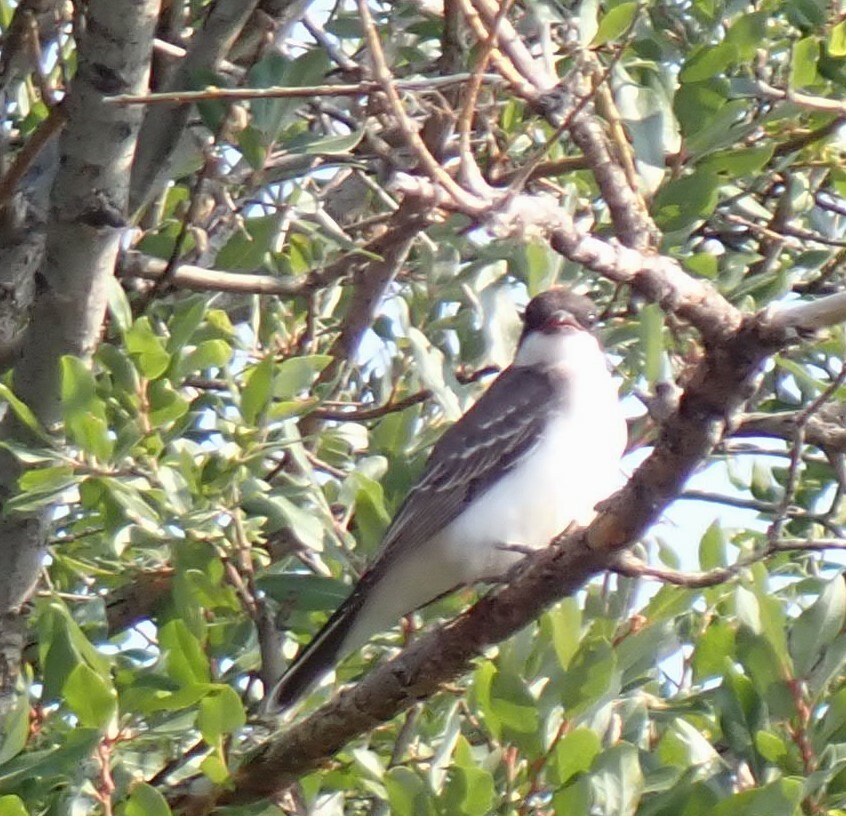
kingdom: Animalia
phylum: Chordata
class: Aves
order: Passeriformes
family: Tyrannidae
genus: Tyrannus
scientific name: Tyrannus tyrannus
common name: Eastern kingbird
